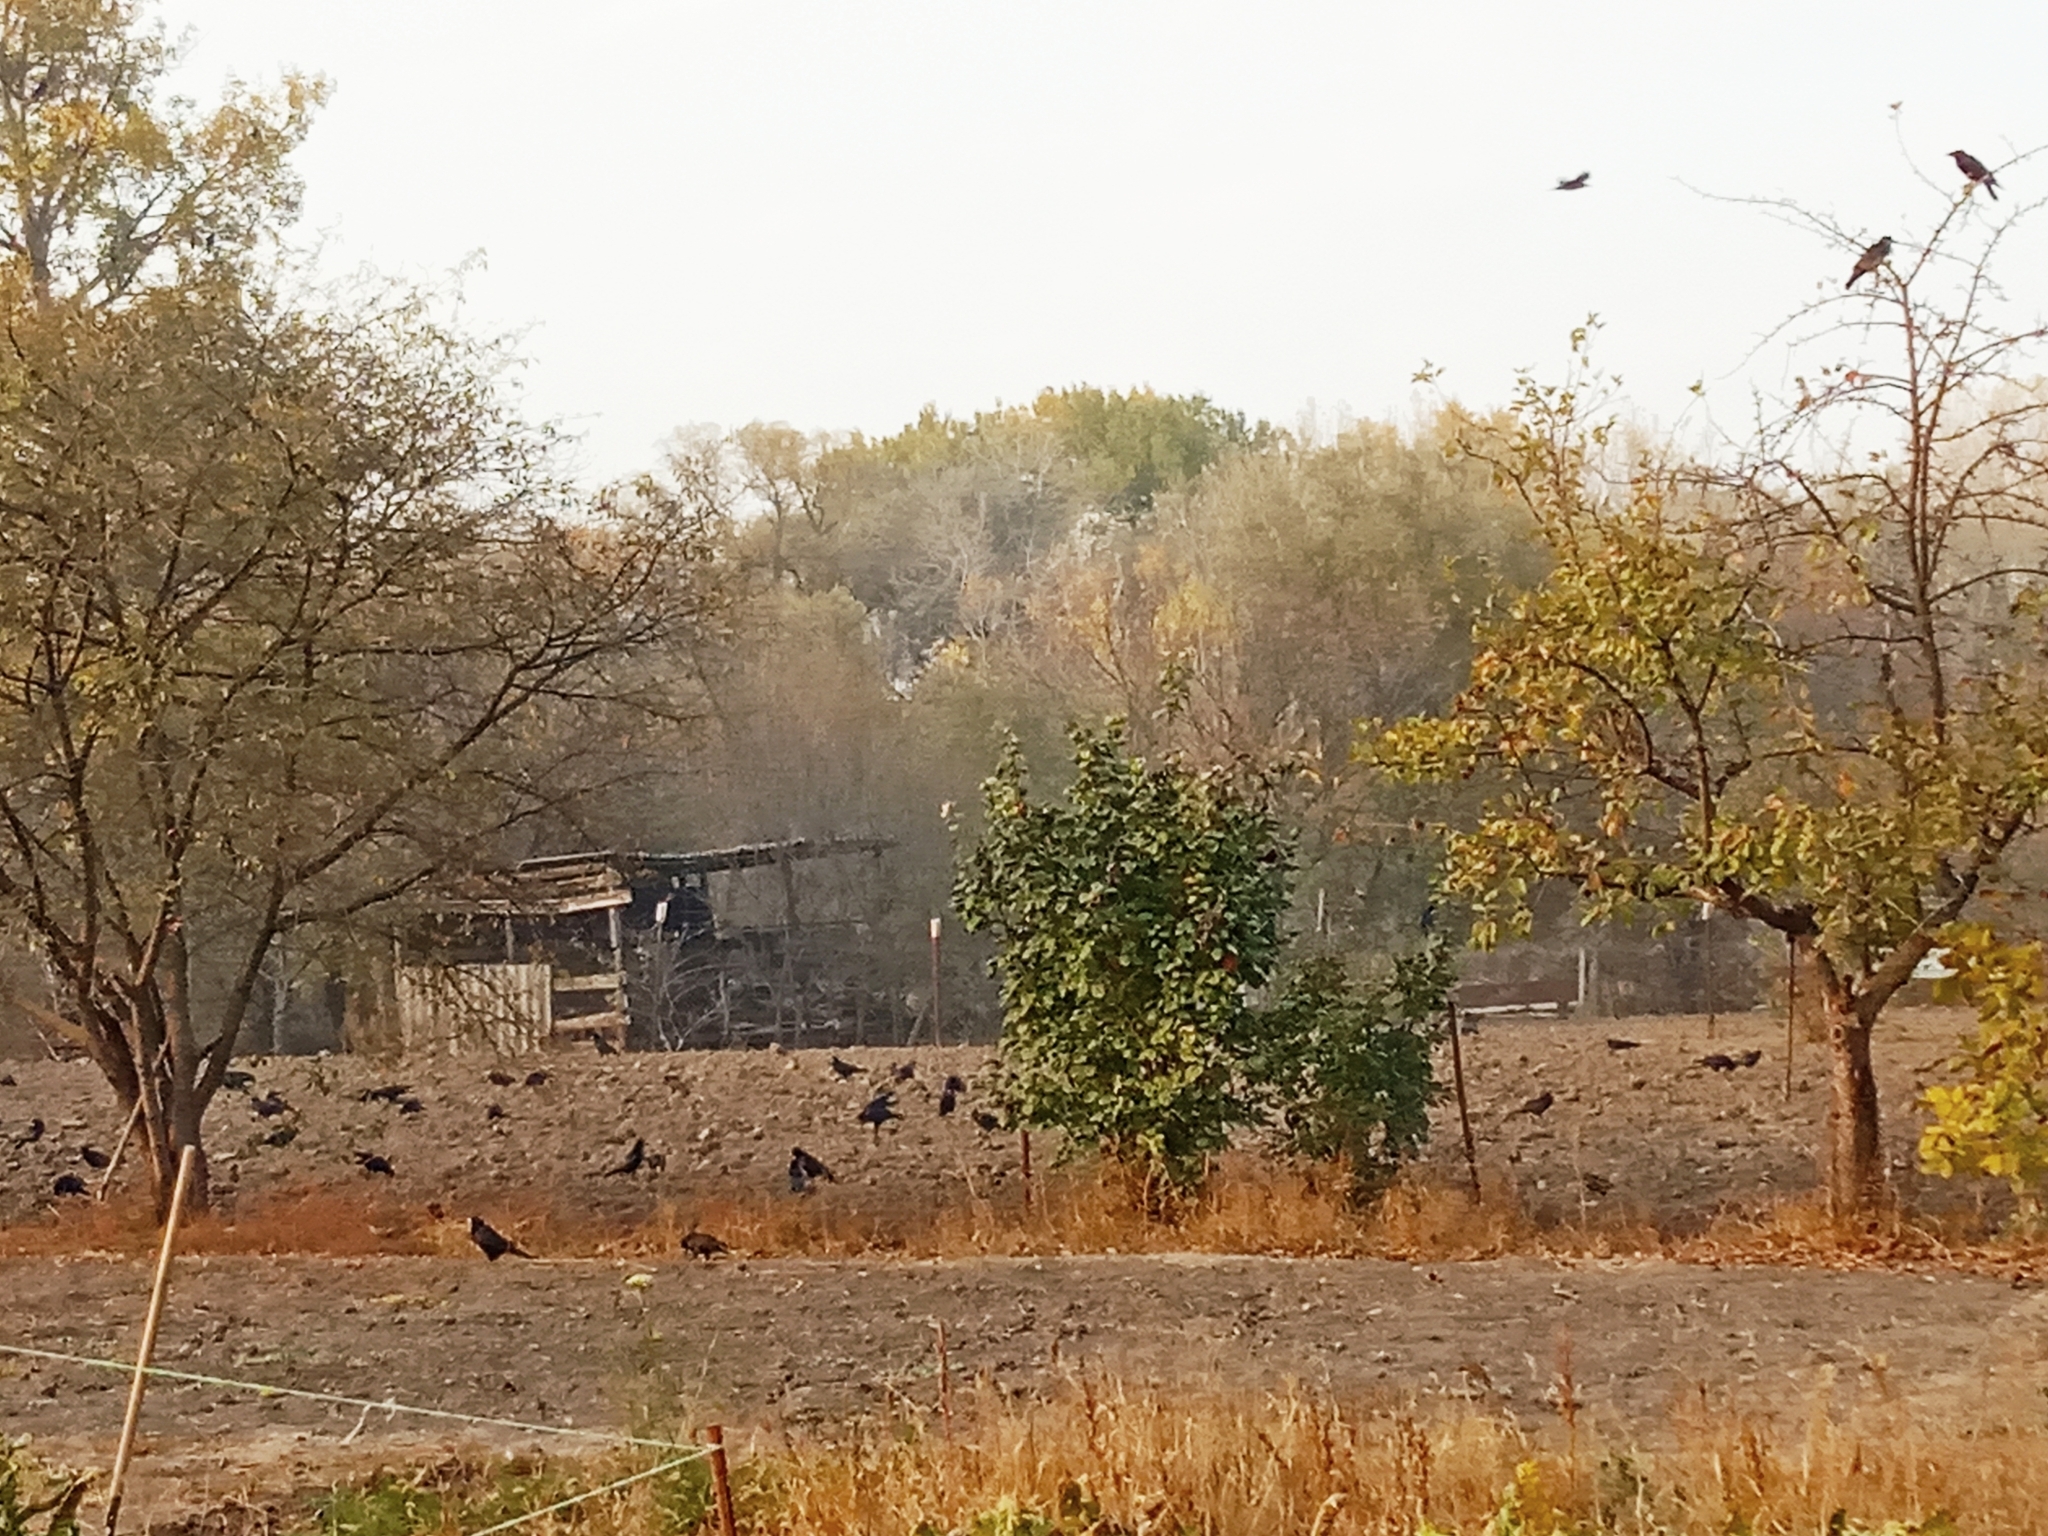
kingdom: Animalia
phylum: Chordata
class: Aves
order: Passeriformes
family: Corvidae
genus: Corvus
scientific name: Corvus frugilegus
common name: Rook
